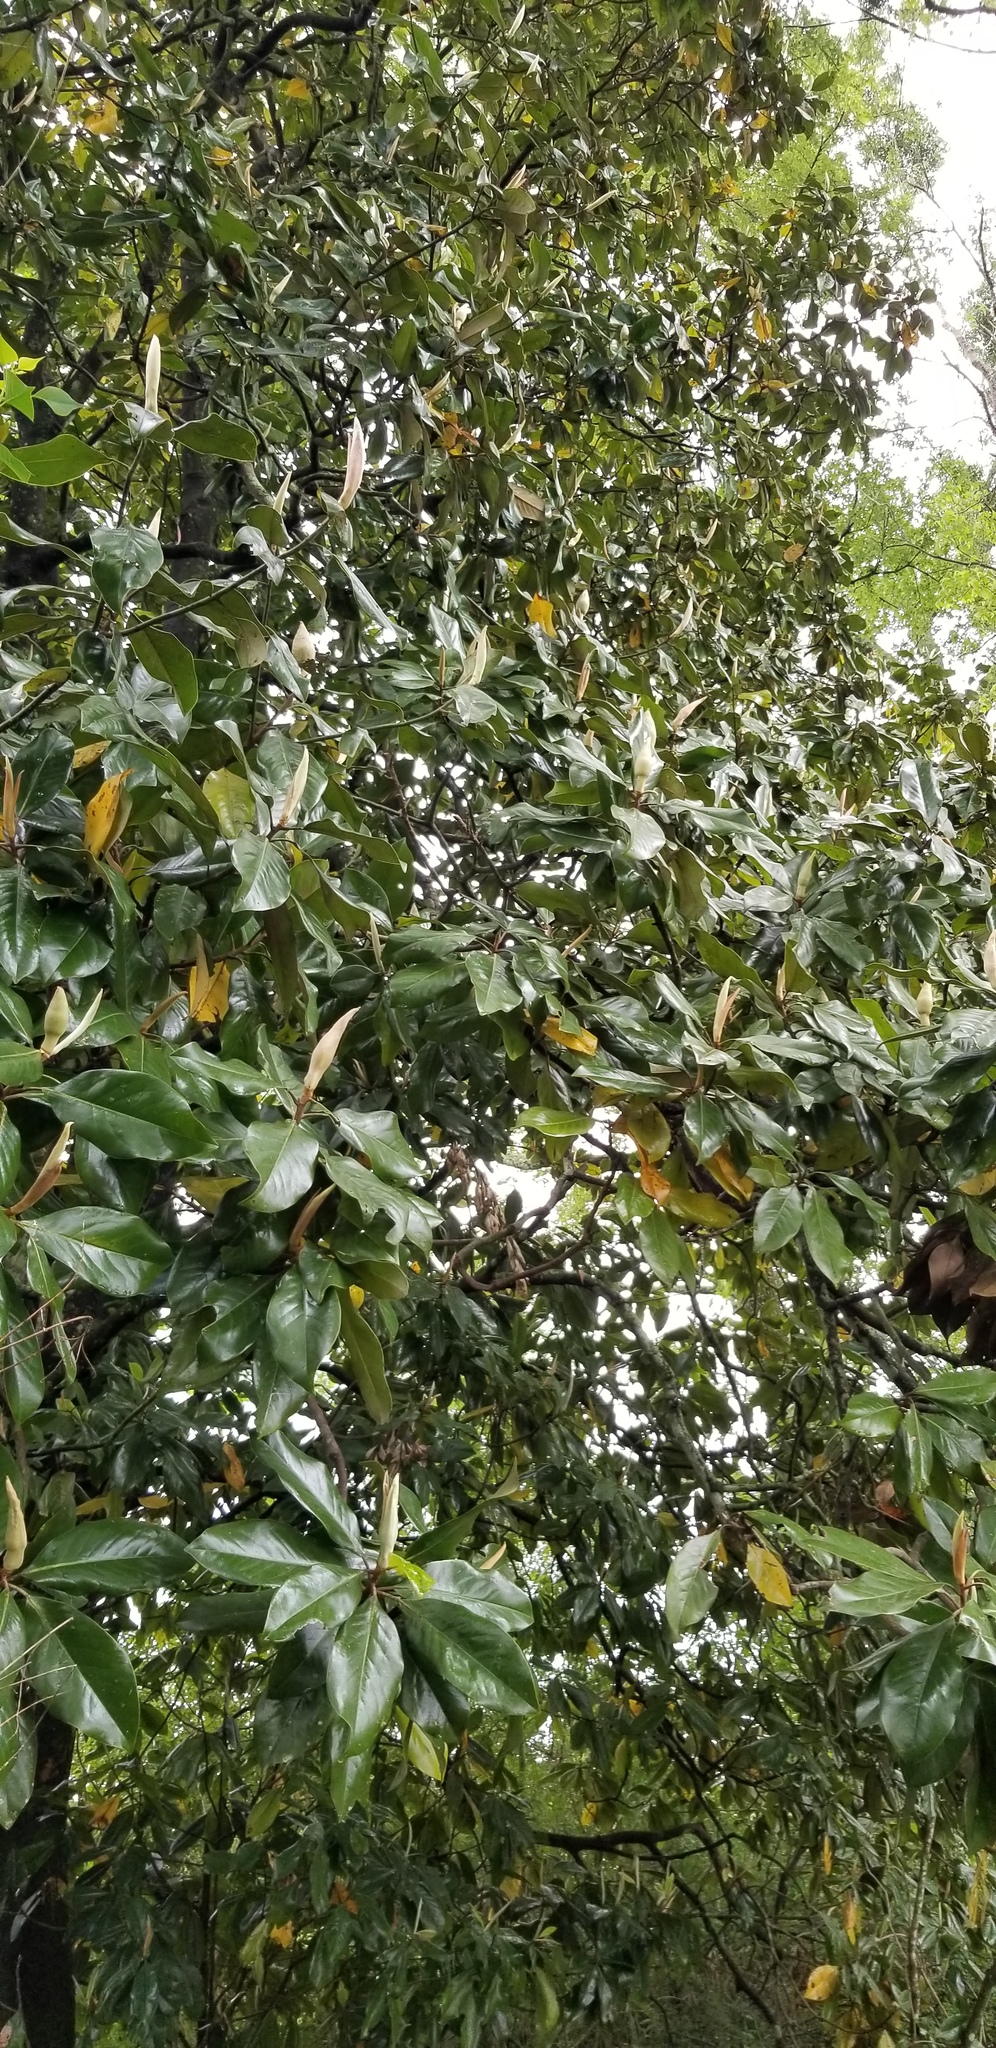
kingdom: Plantae
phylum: Tracheophyta
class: Magnoliopsida
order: Magnoliales
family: Magnoliaceae
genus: Magnolia
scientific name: Magnolia grandiflora
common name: Southern magnolia
